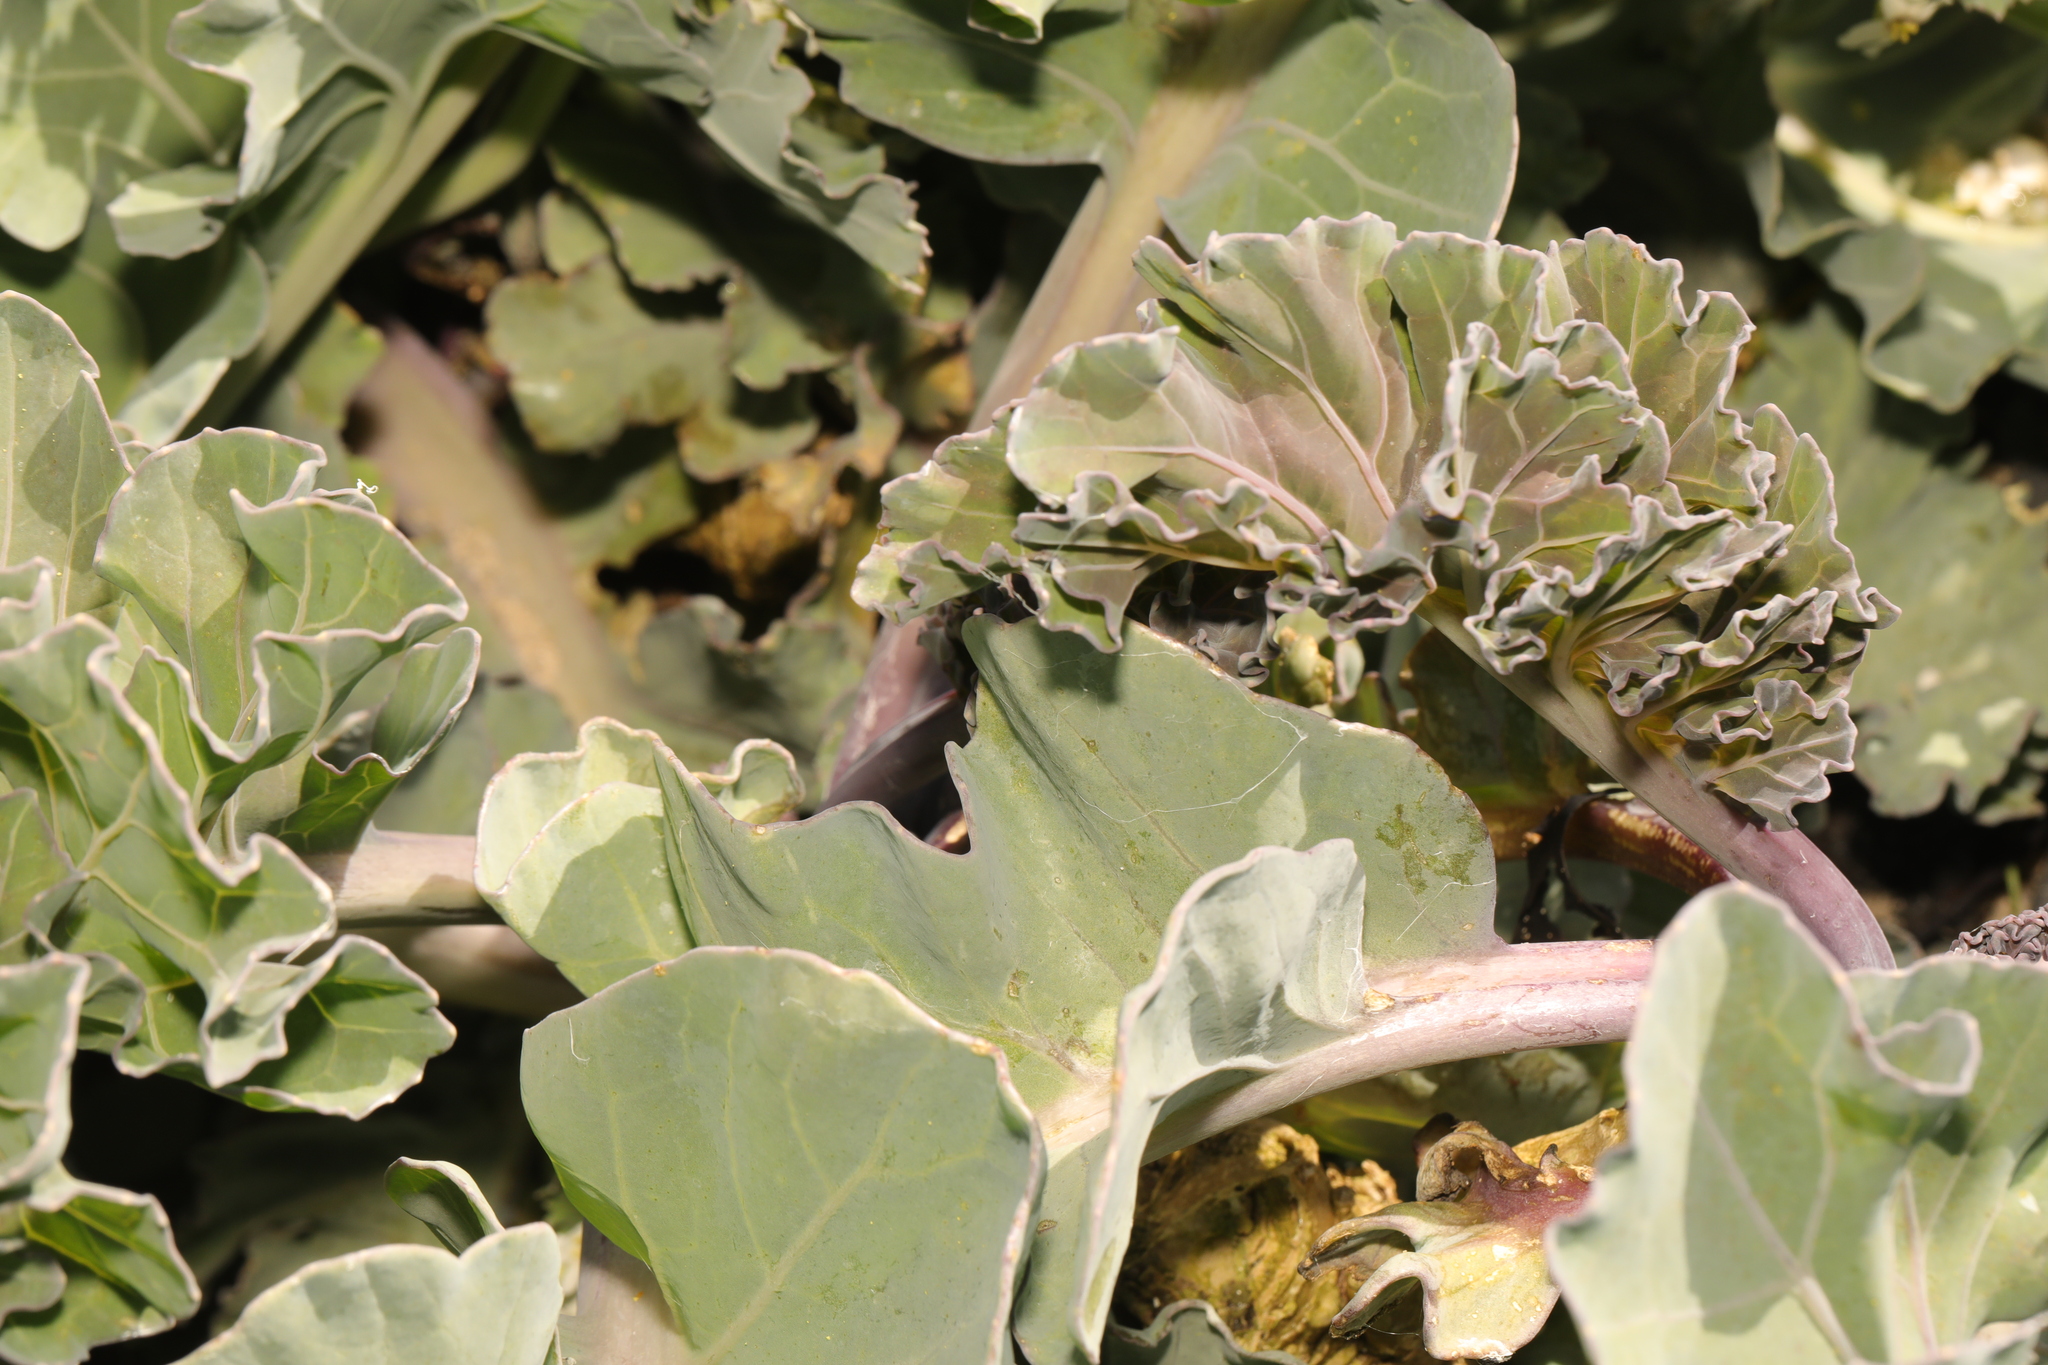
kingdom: Plantae
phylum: Tracheophyta
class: Magnoliopsida
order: Brassicales
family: Brassicaceae
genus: Crambe
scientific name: Crambe maritima
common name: Sea-kale
